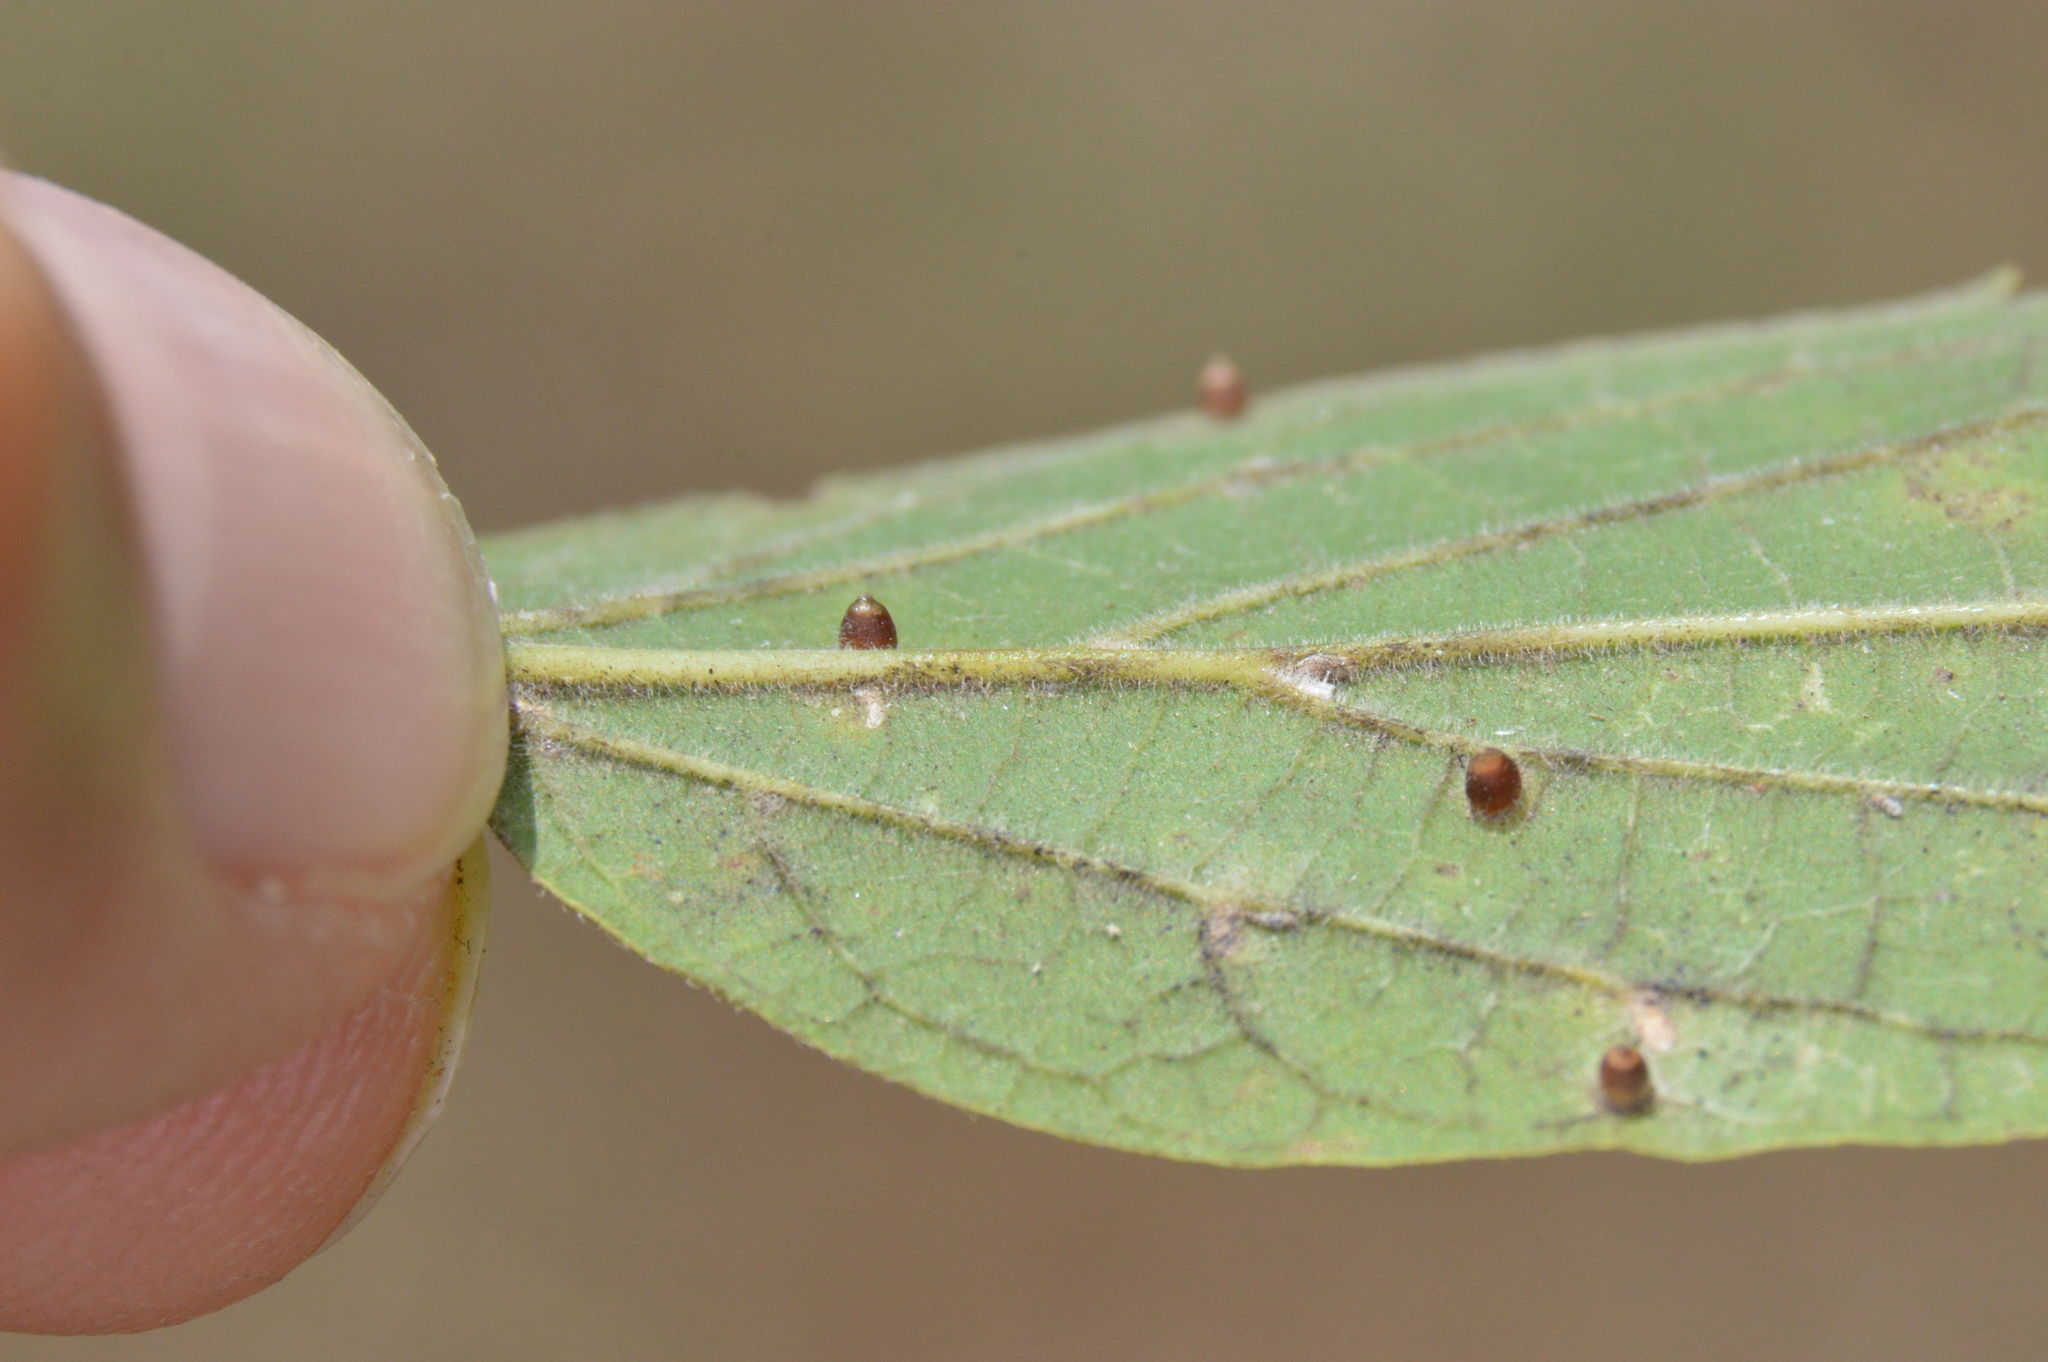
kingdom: Animalia
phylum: Arthropoda
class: Insecta
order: Diptera
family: Cecidomyiidae
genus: Celticecis
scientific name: Celticecis cupiformis
